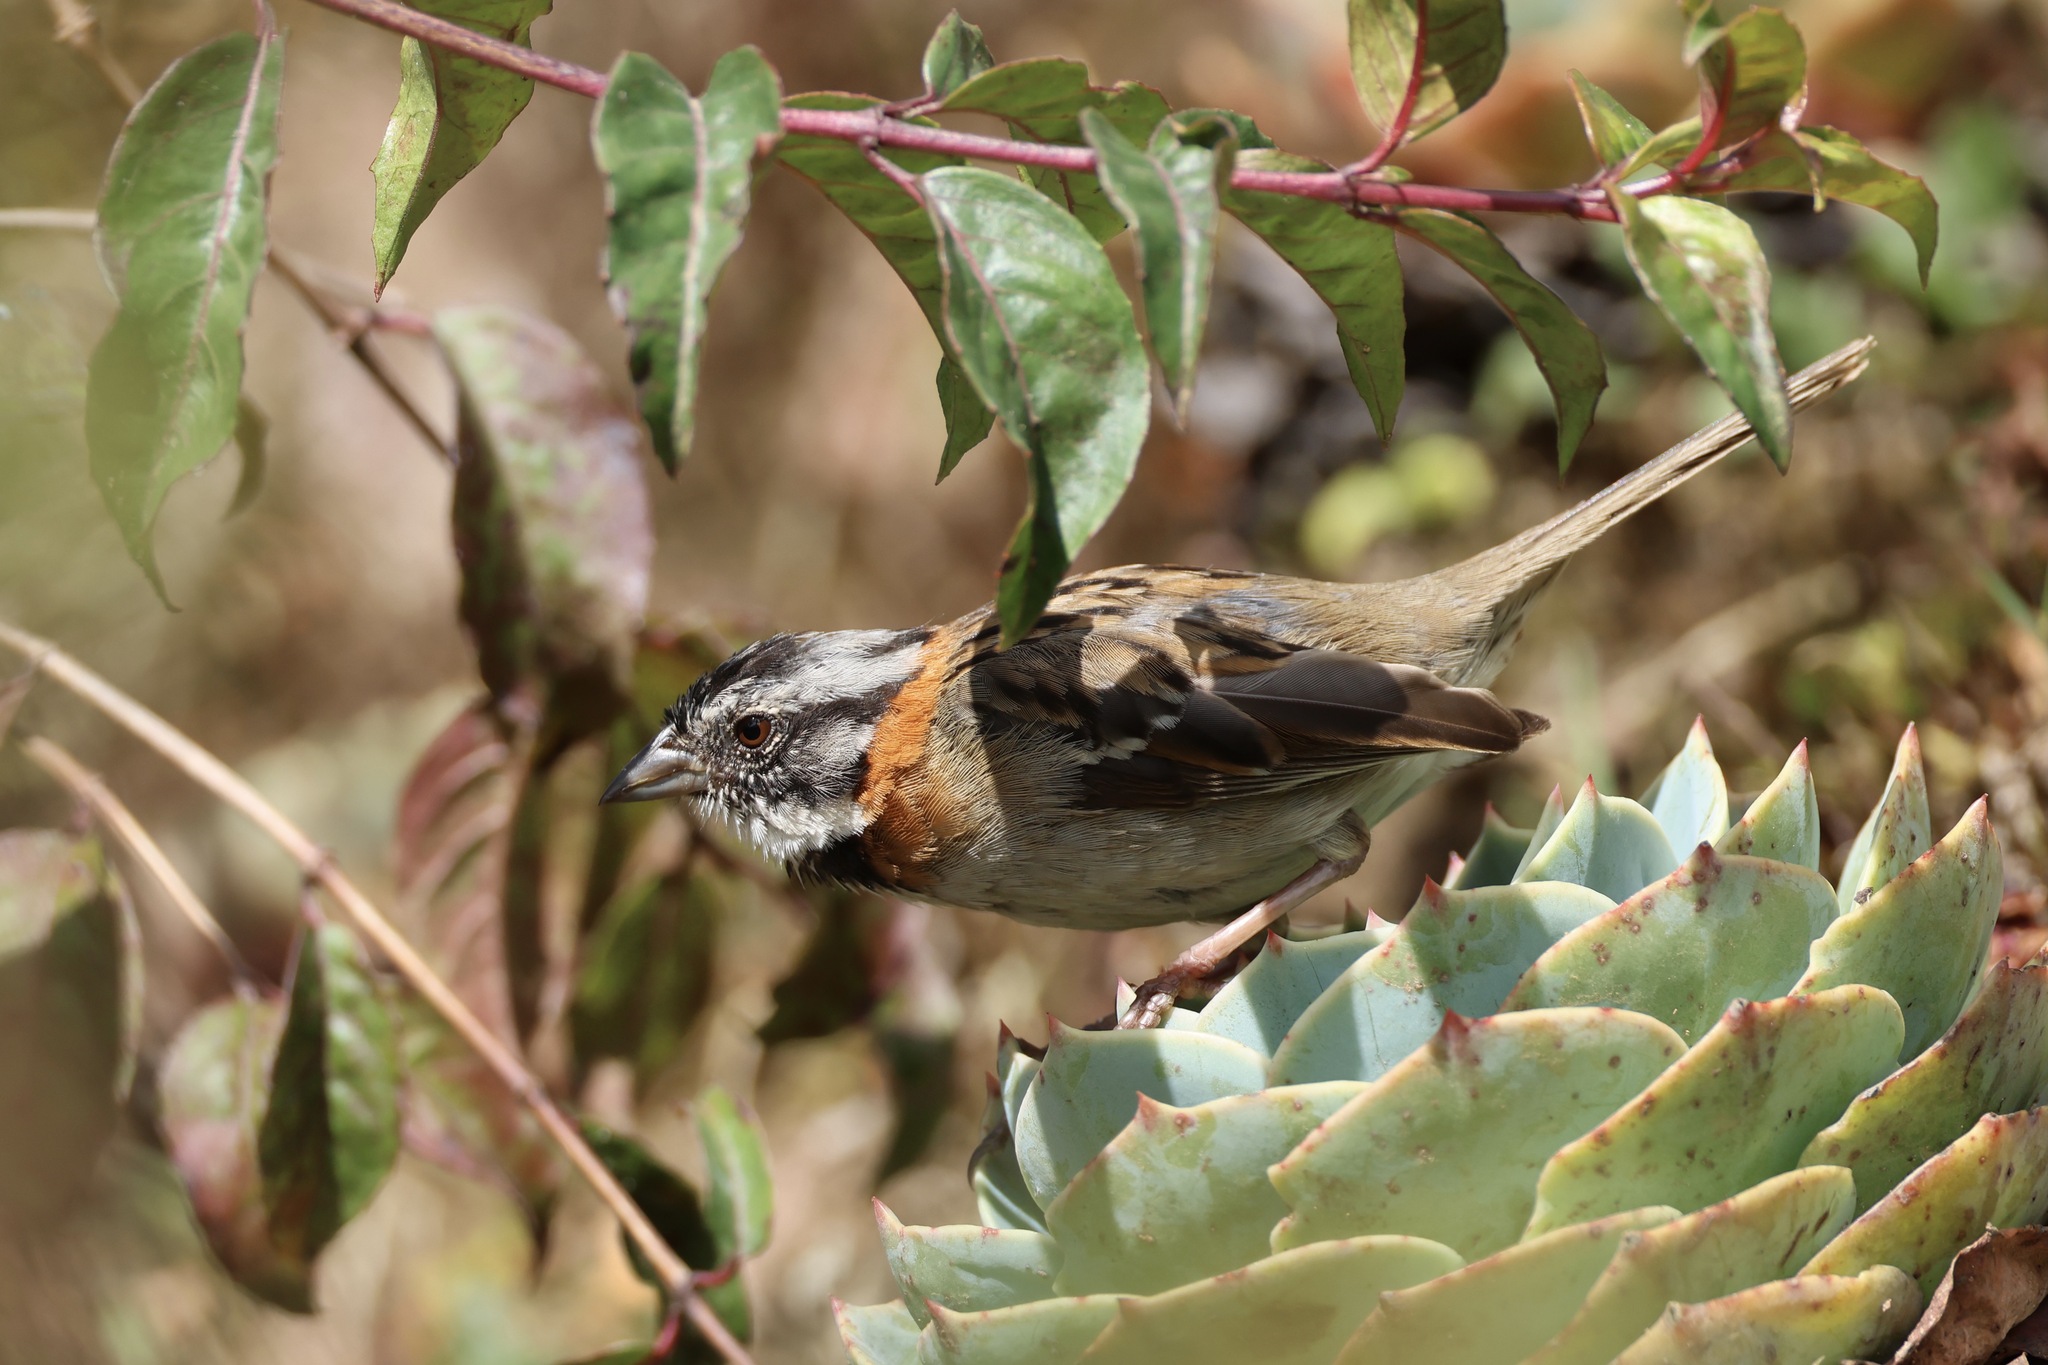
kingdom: Animalia
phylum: Chordata
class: Aves
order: Passeriformes
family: Passerellidae
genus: Zonotrichia
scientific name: Zonotrichia capensis
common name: Rufous-collared sparrow
